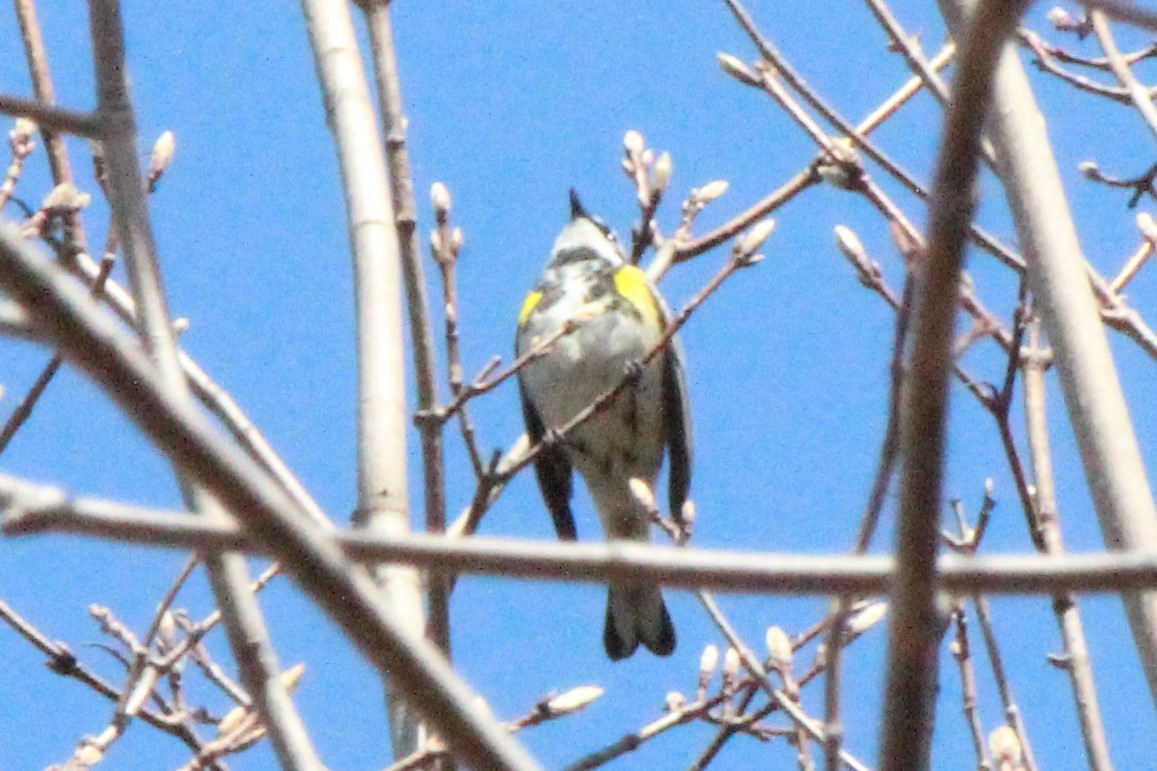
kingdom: Animalia
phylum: Chordata
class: Aves
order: Passeriformes
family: Parulidae
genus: Setophaga
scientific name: Setophaga coronata
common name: Myrtle warbler
